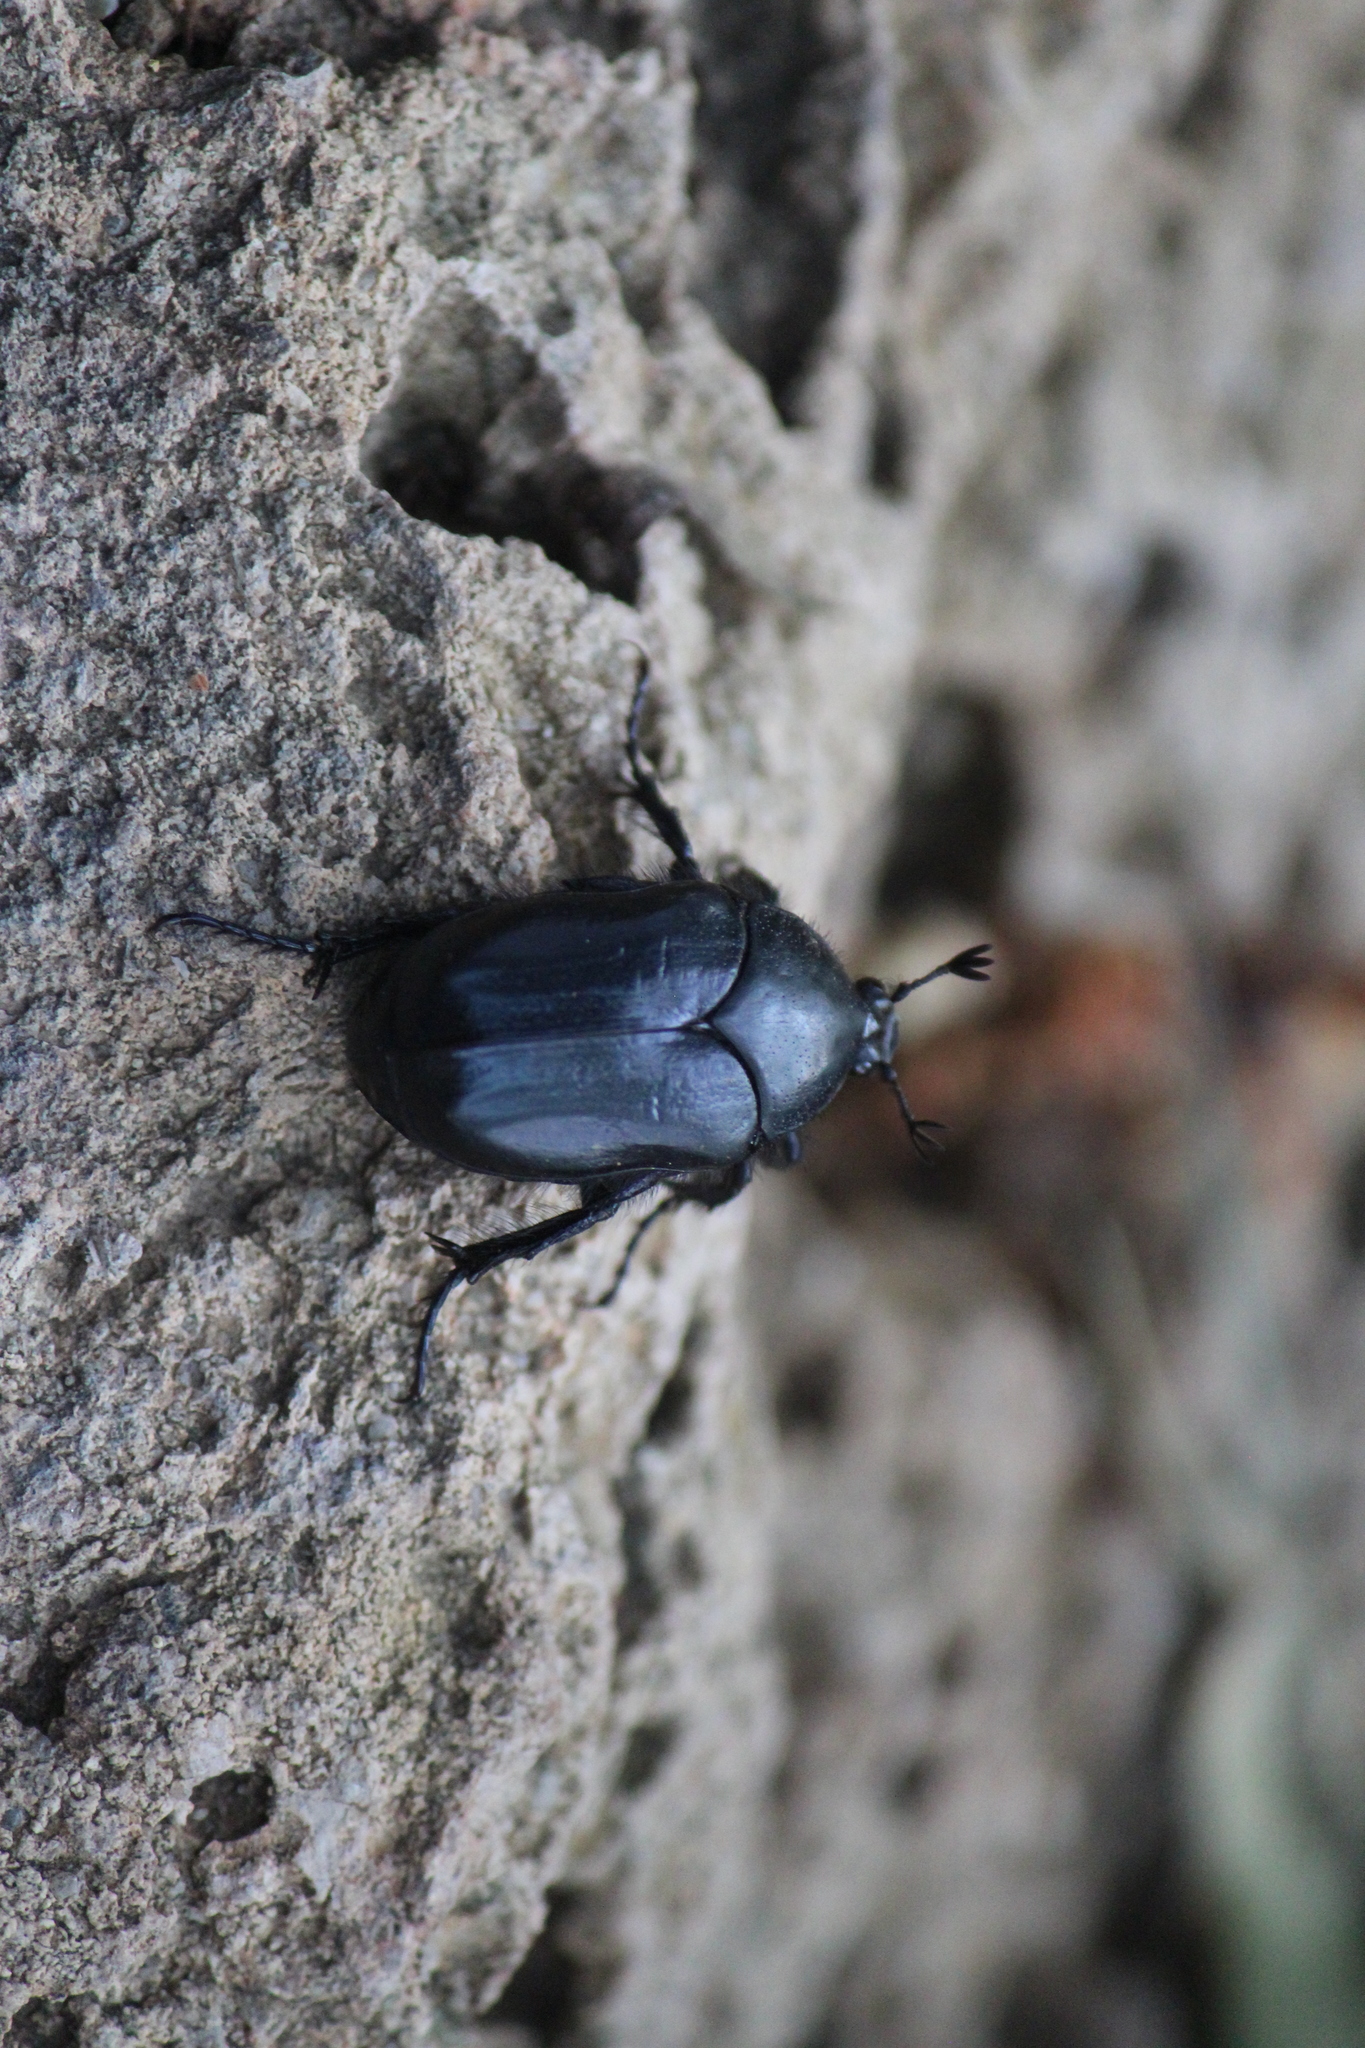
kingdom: Animalia
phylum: Arthropoda
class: Insecta
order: Coleoptera
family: Scarabaeidae
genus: Cotinis
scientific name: Cotinis antonii
